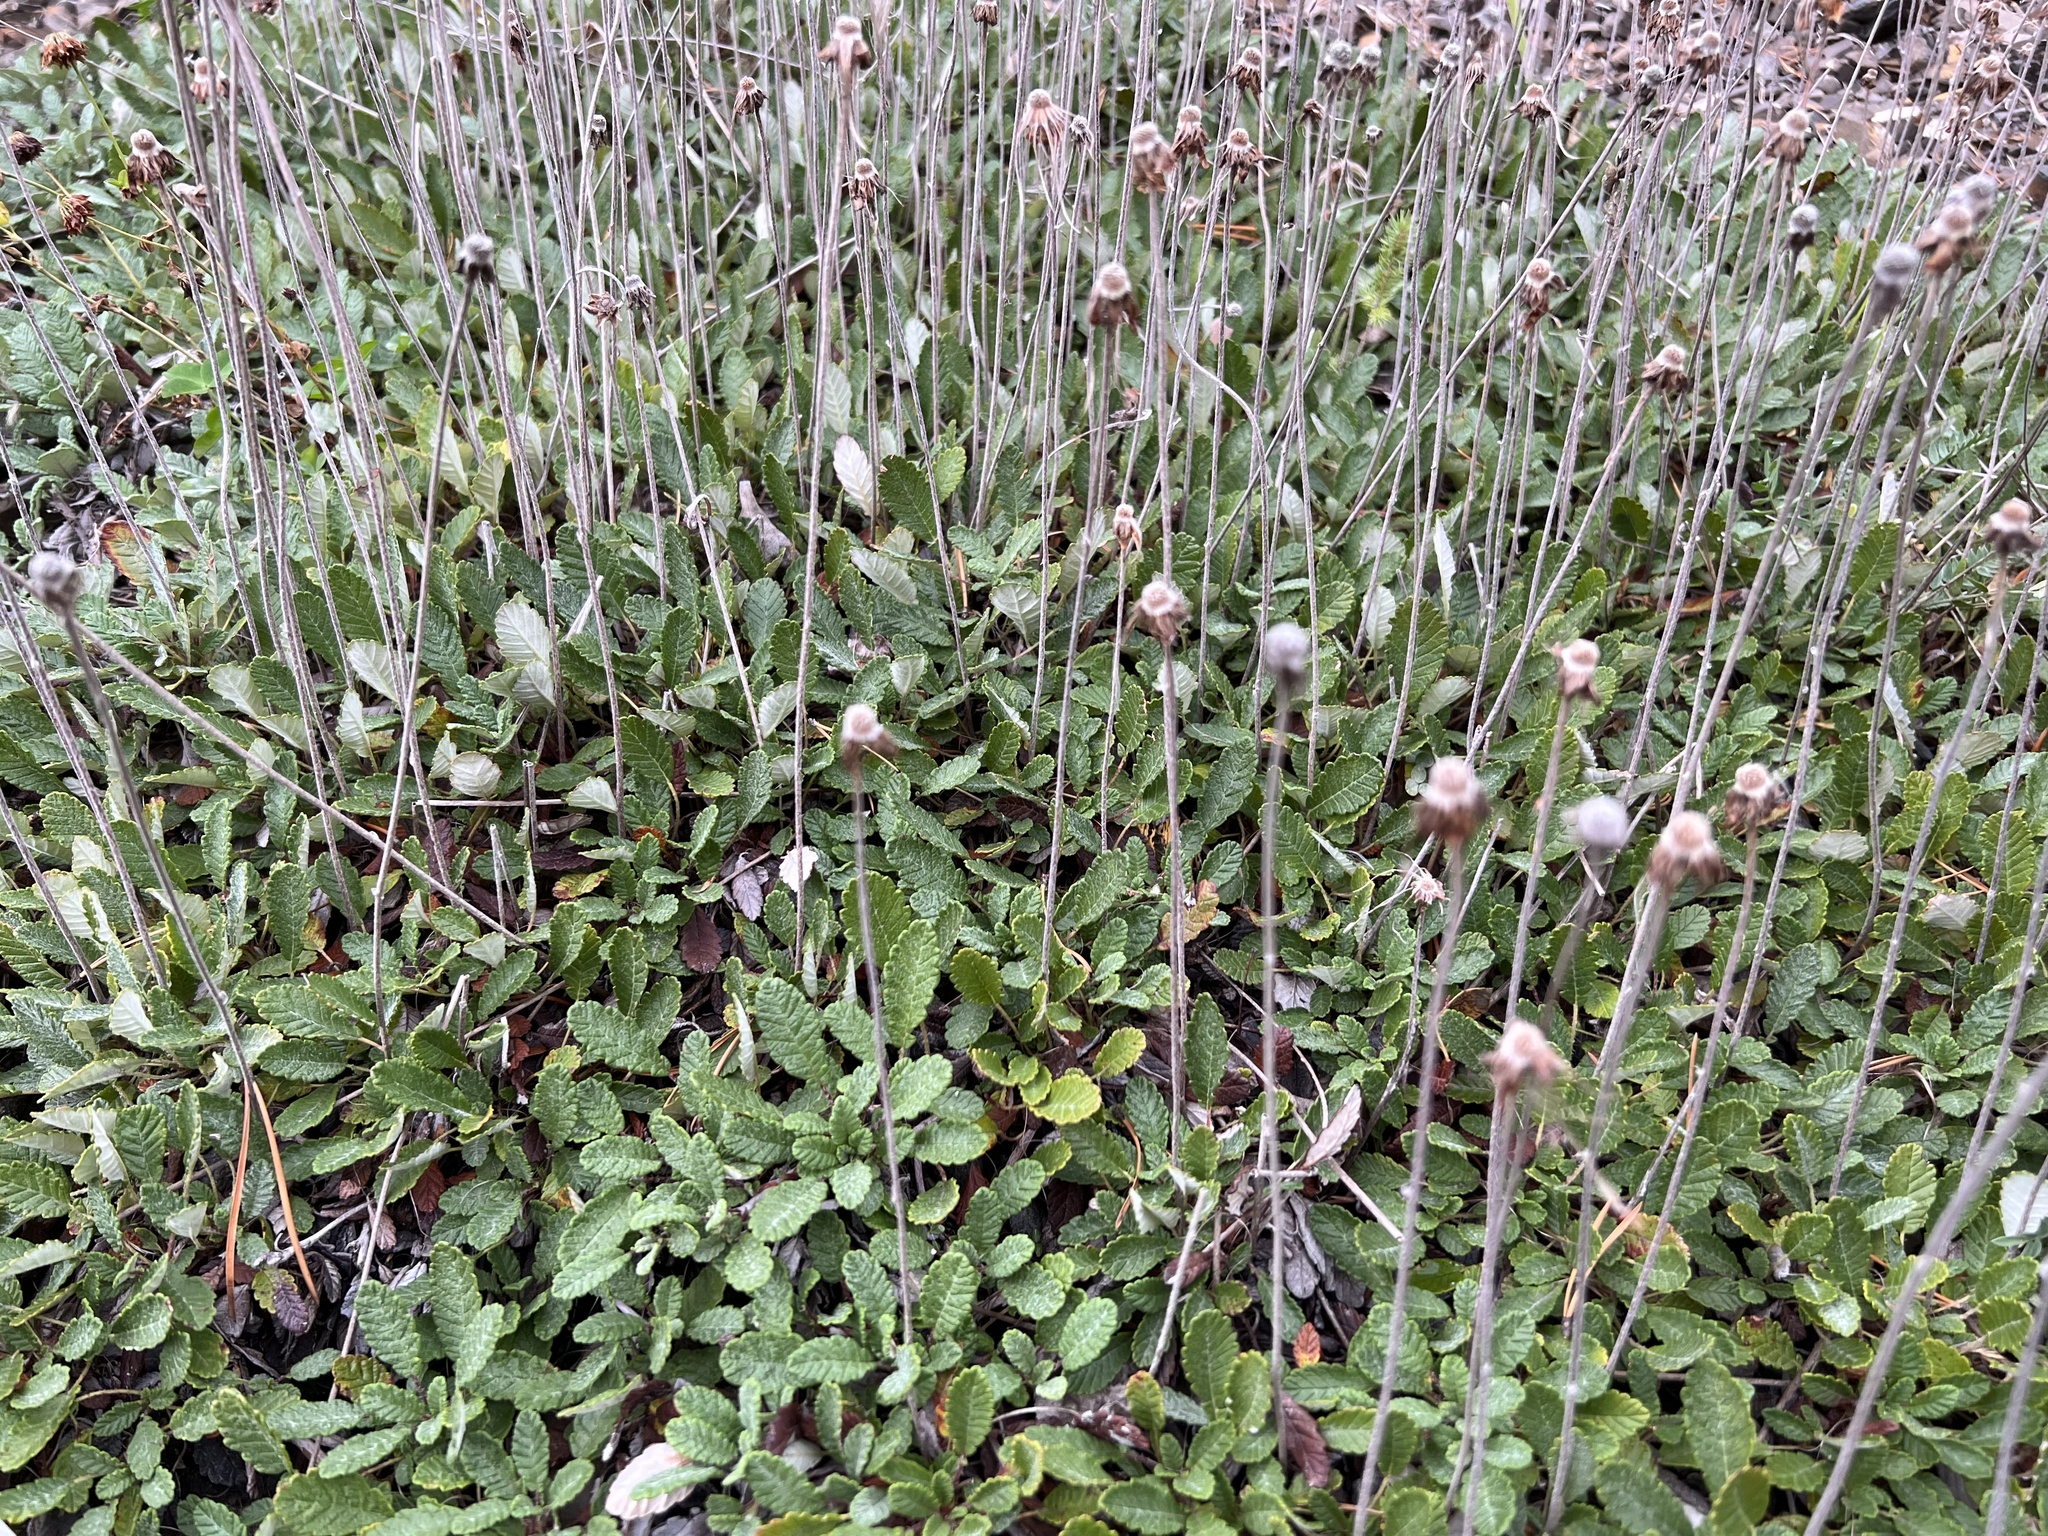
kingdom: Plantae
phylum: Tracheophyta
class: Magnoliopsida
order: Rosales
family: Rosaceae
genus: Dryas
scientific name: Dryas drummondii
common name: Drummond's dryad
